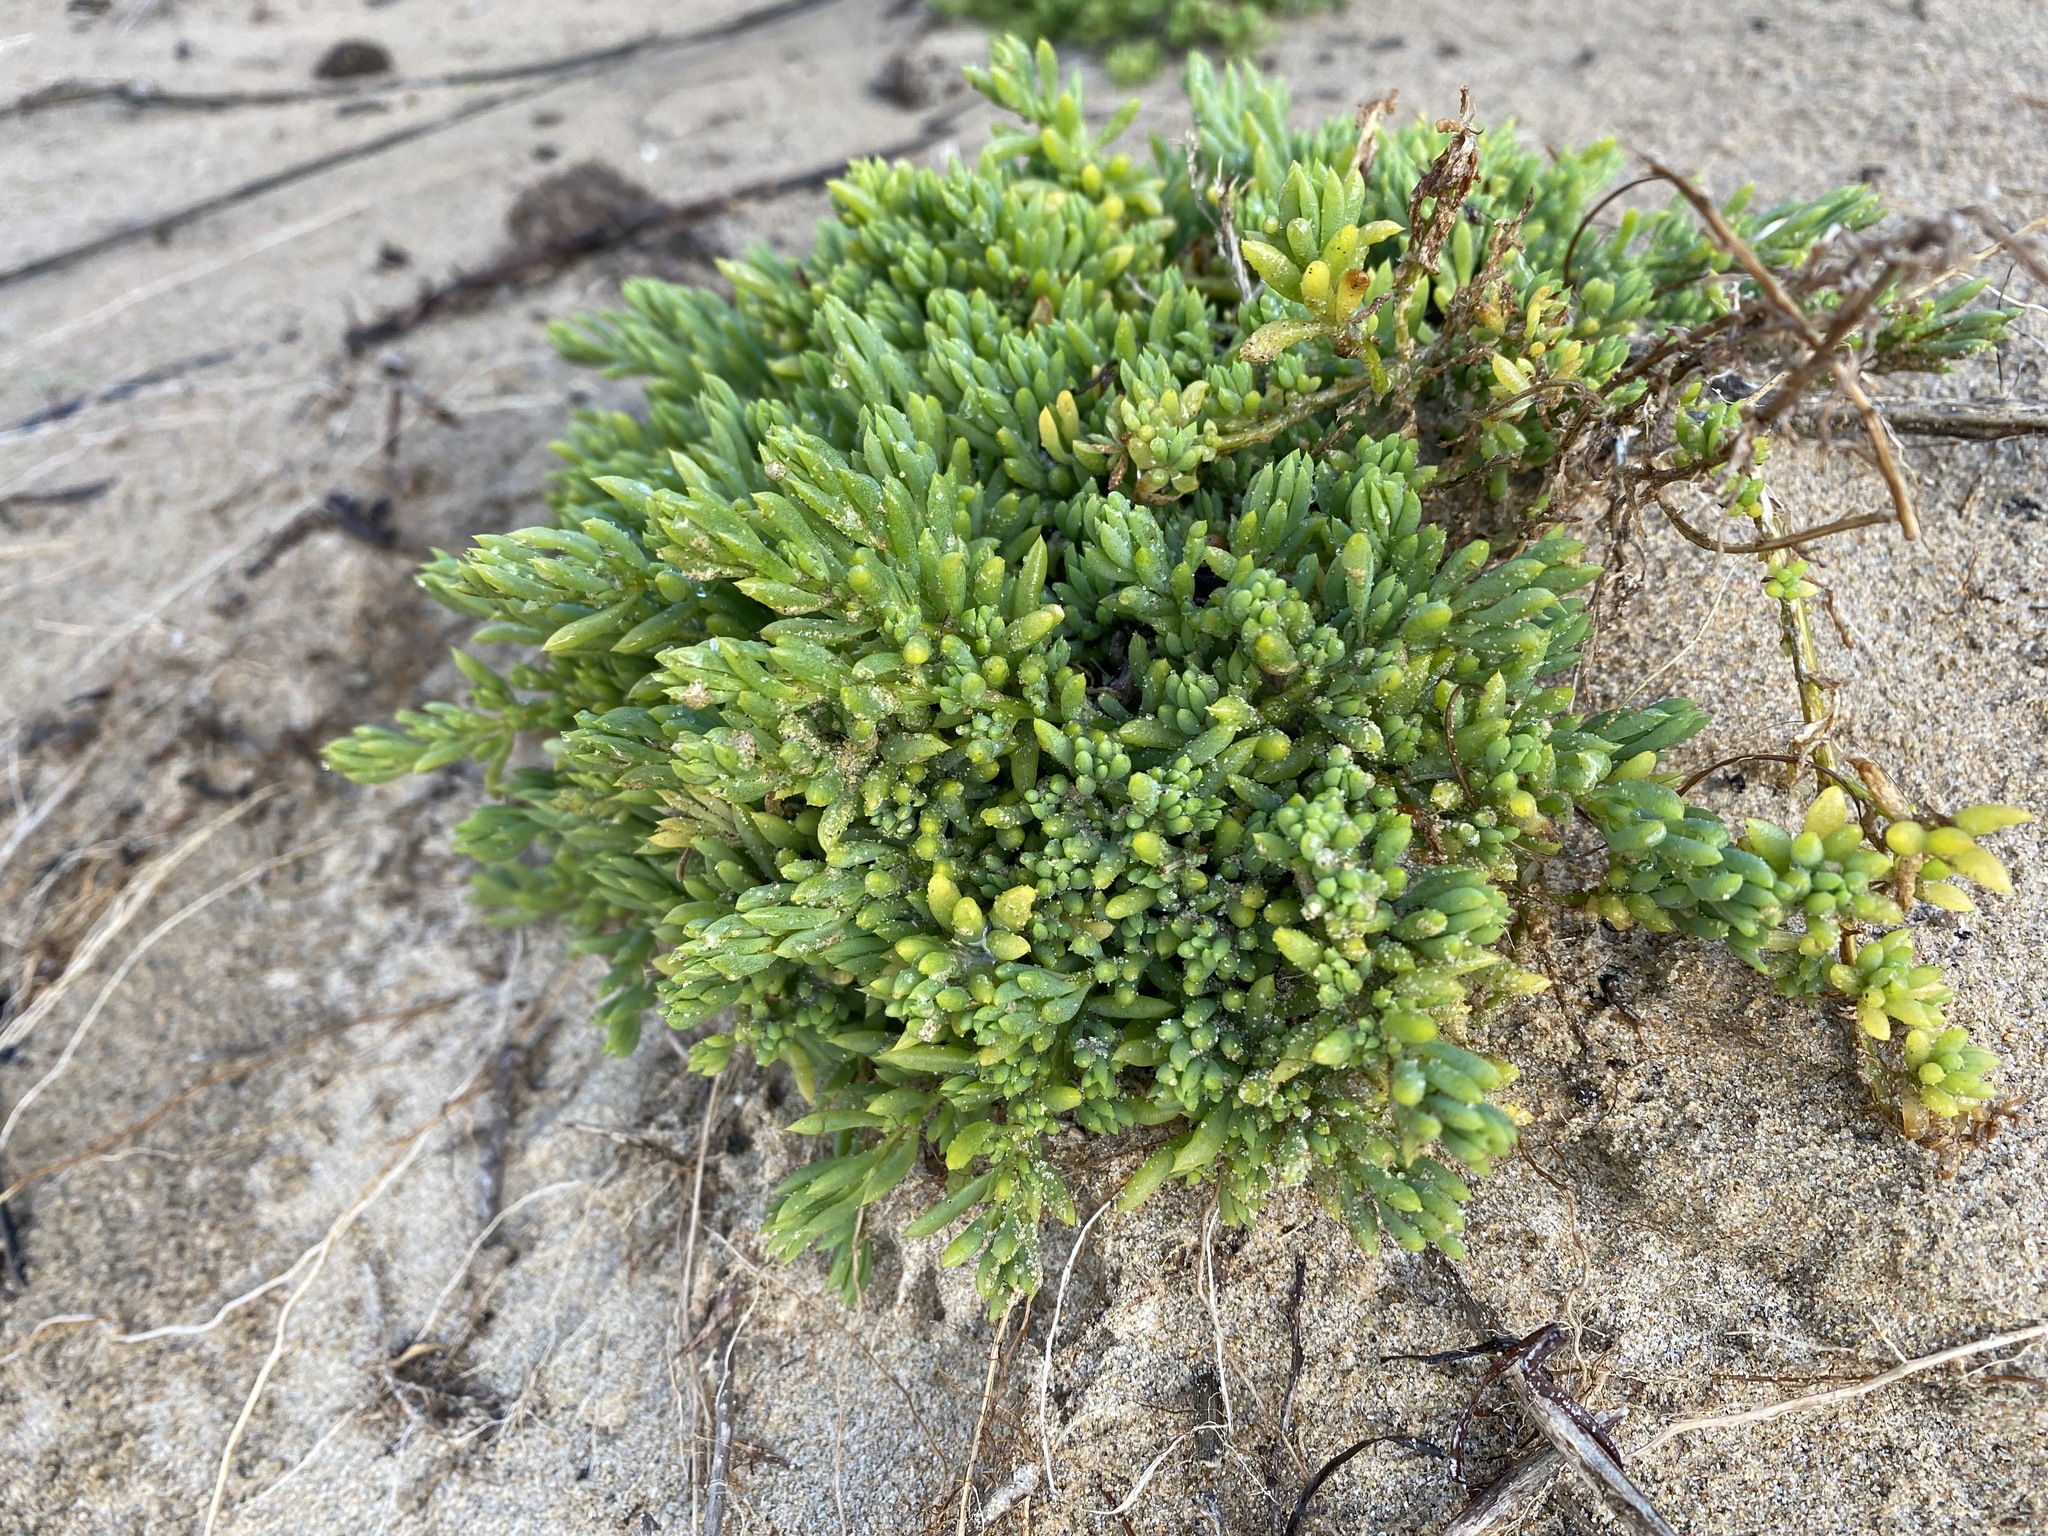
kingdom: Plantae
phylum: Tracheophyta
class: Magnoliopsida
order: Caryophyllales
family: Amaranthaceae
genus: Threlkeldia
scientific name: Threlkeldia diffusa
